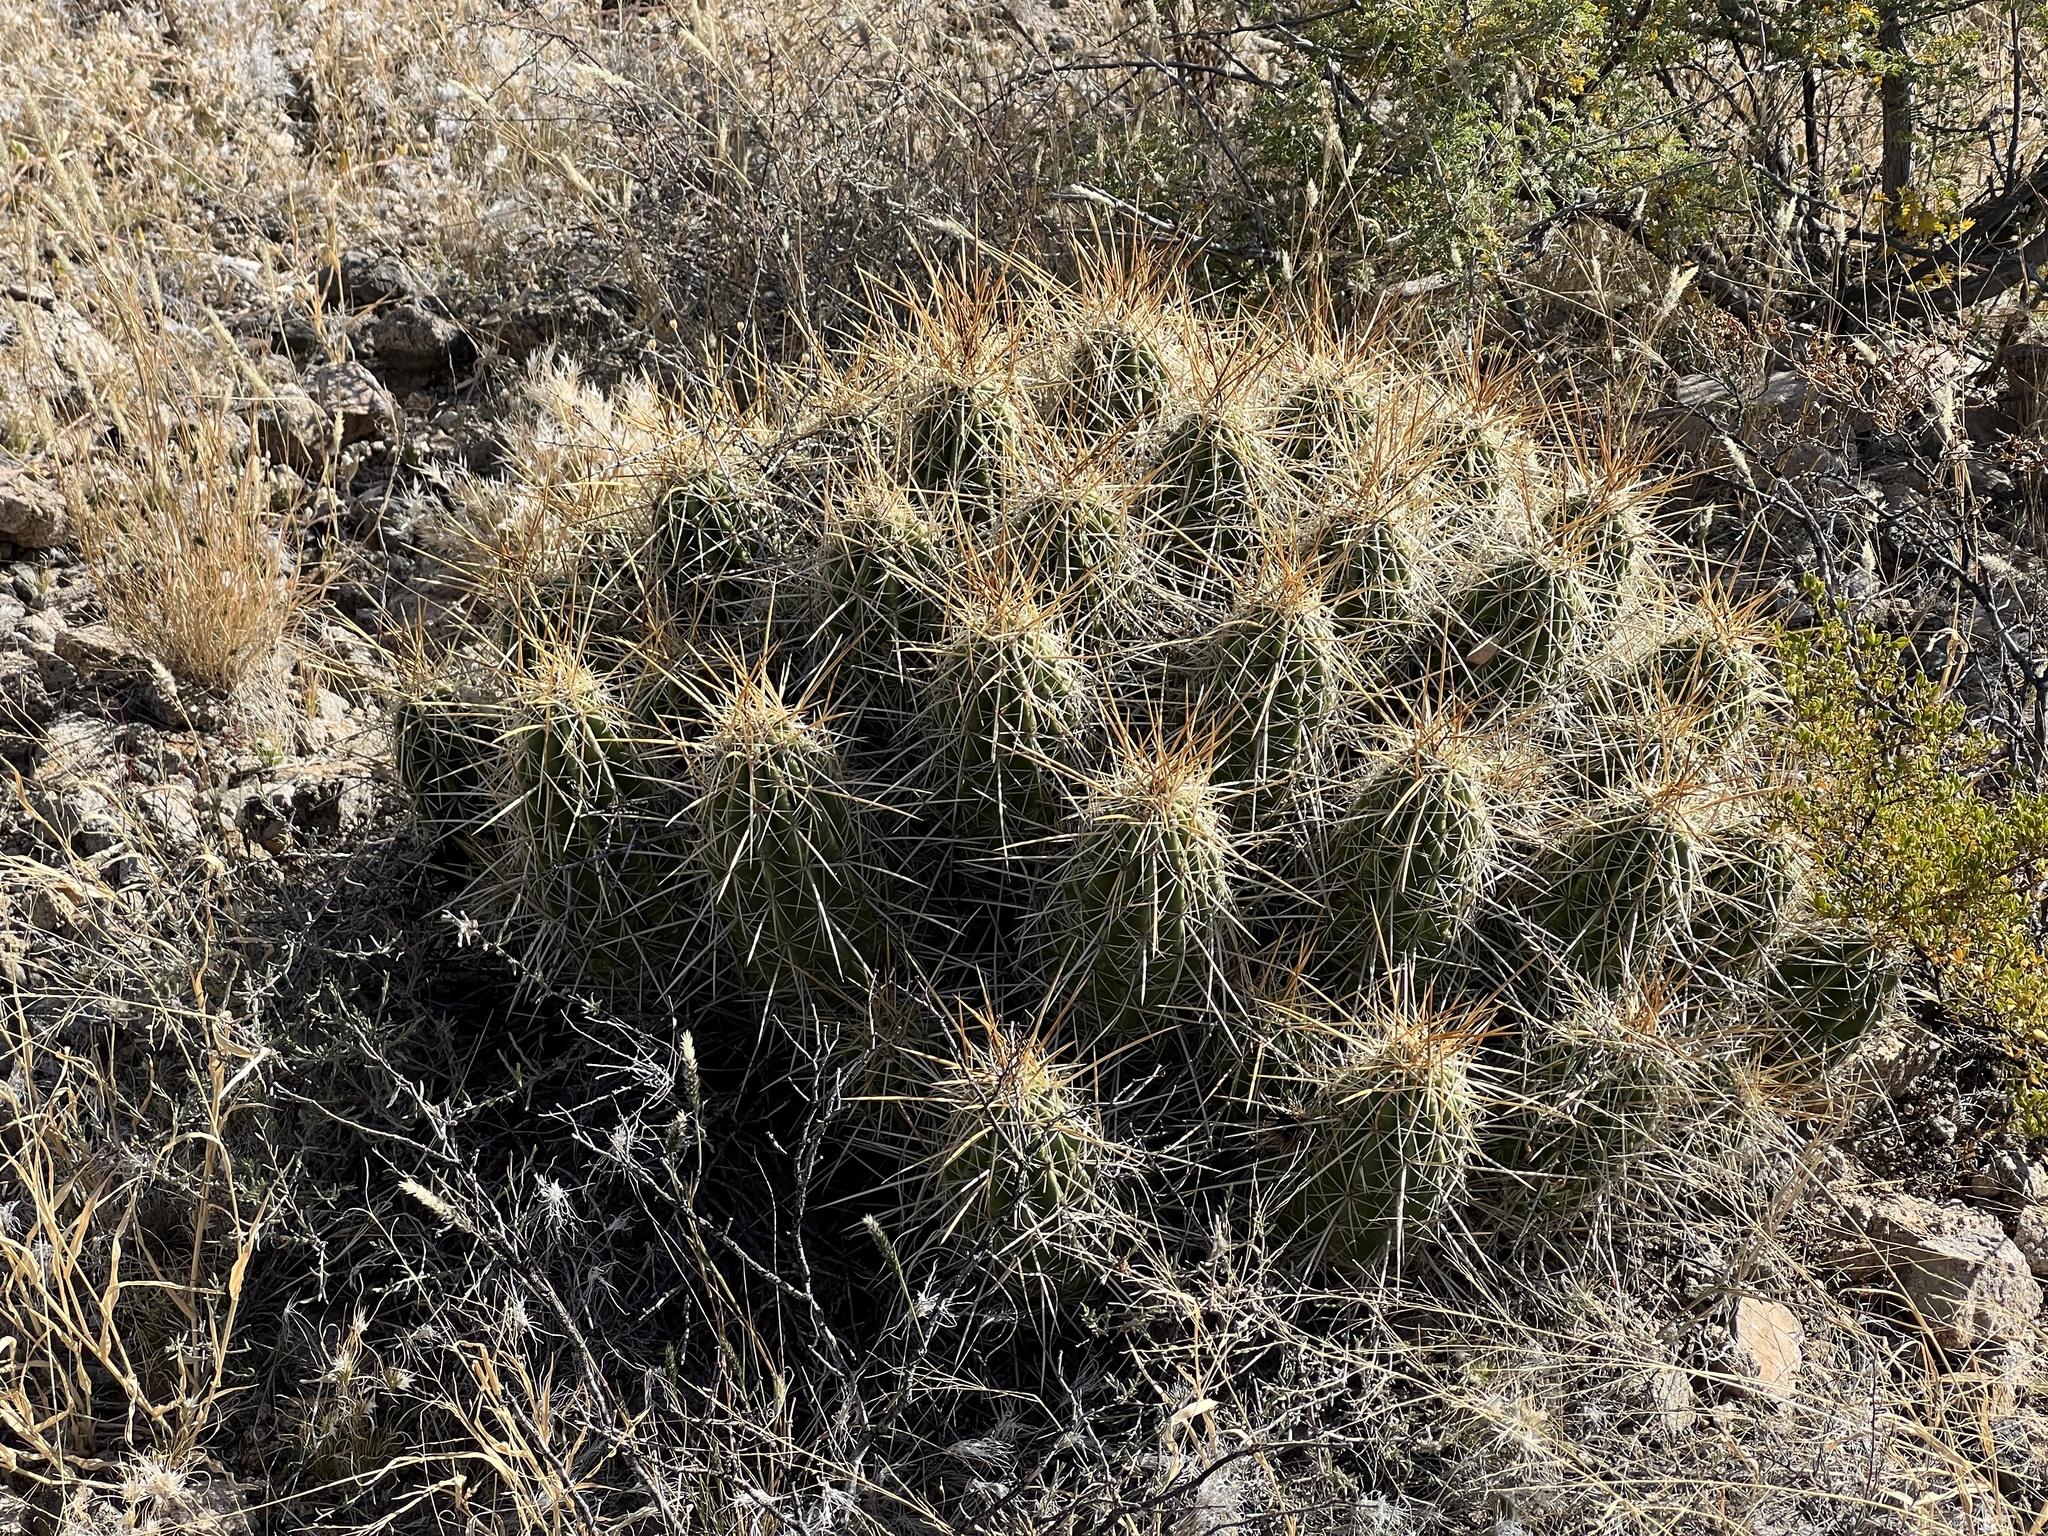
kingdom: Plantae
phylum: Tracheophyta
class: Magnoliopsida
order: Caryophyllales
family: Cactaceae
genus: Echinocereus
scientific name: Echinocereus stramineus
